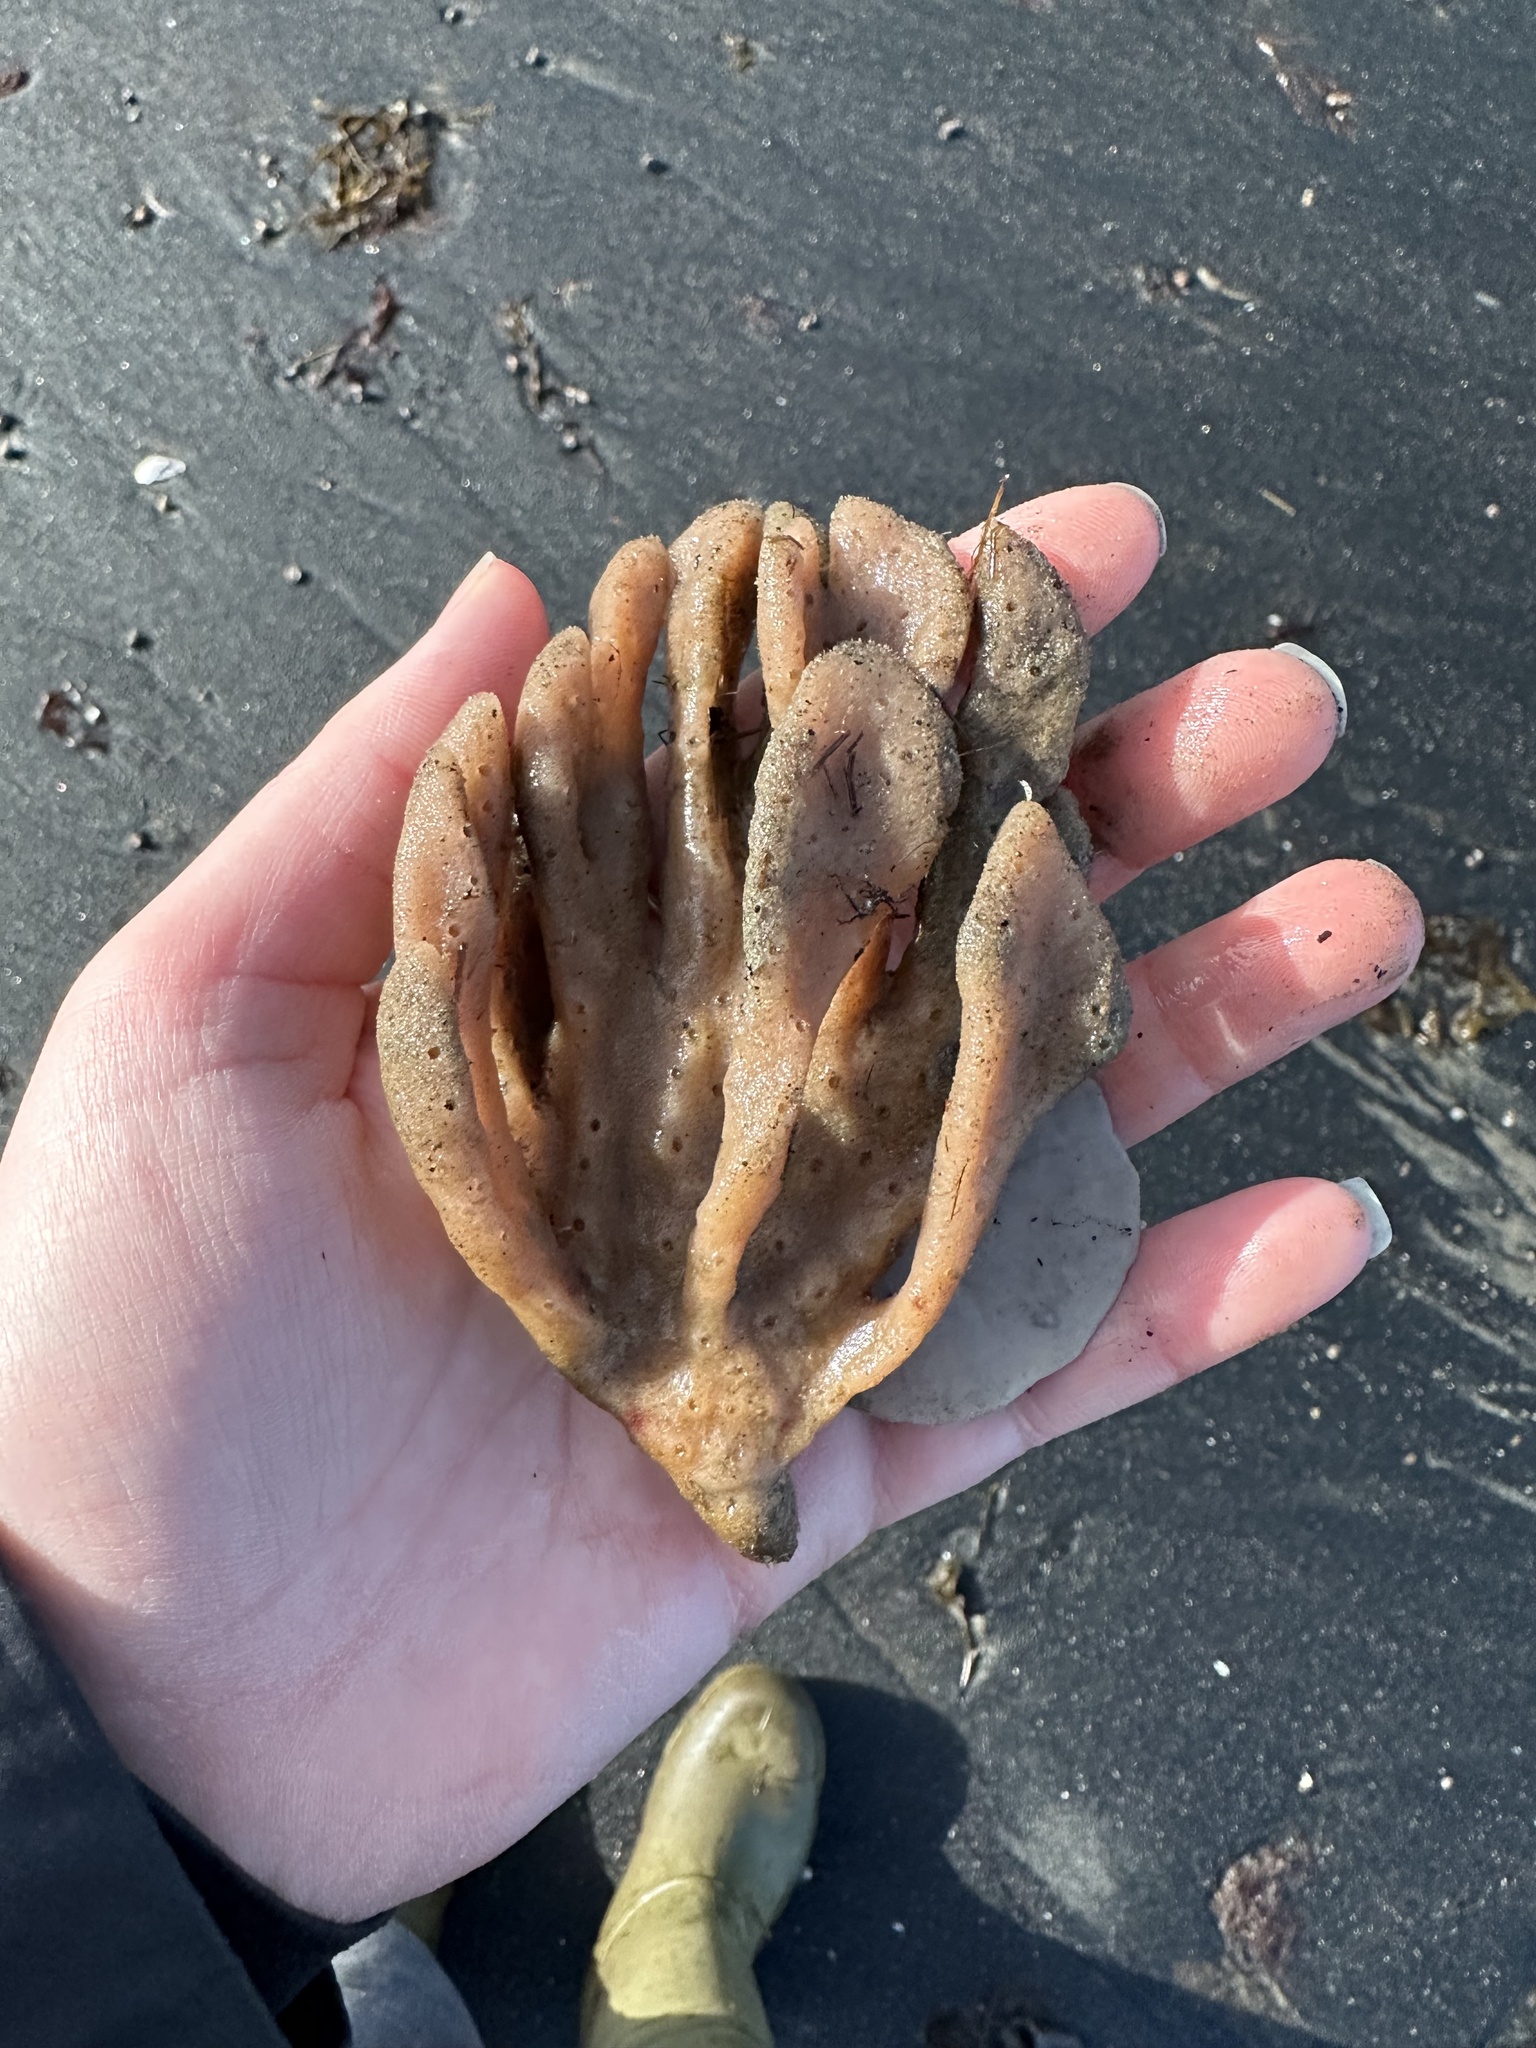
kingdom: Animalia
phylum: Porifera
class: Demospongiae
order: Haplosclerida
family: Chalinidae
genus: Haliclona
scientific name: Haliclona oculata
